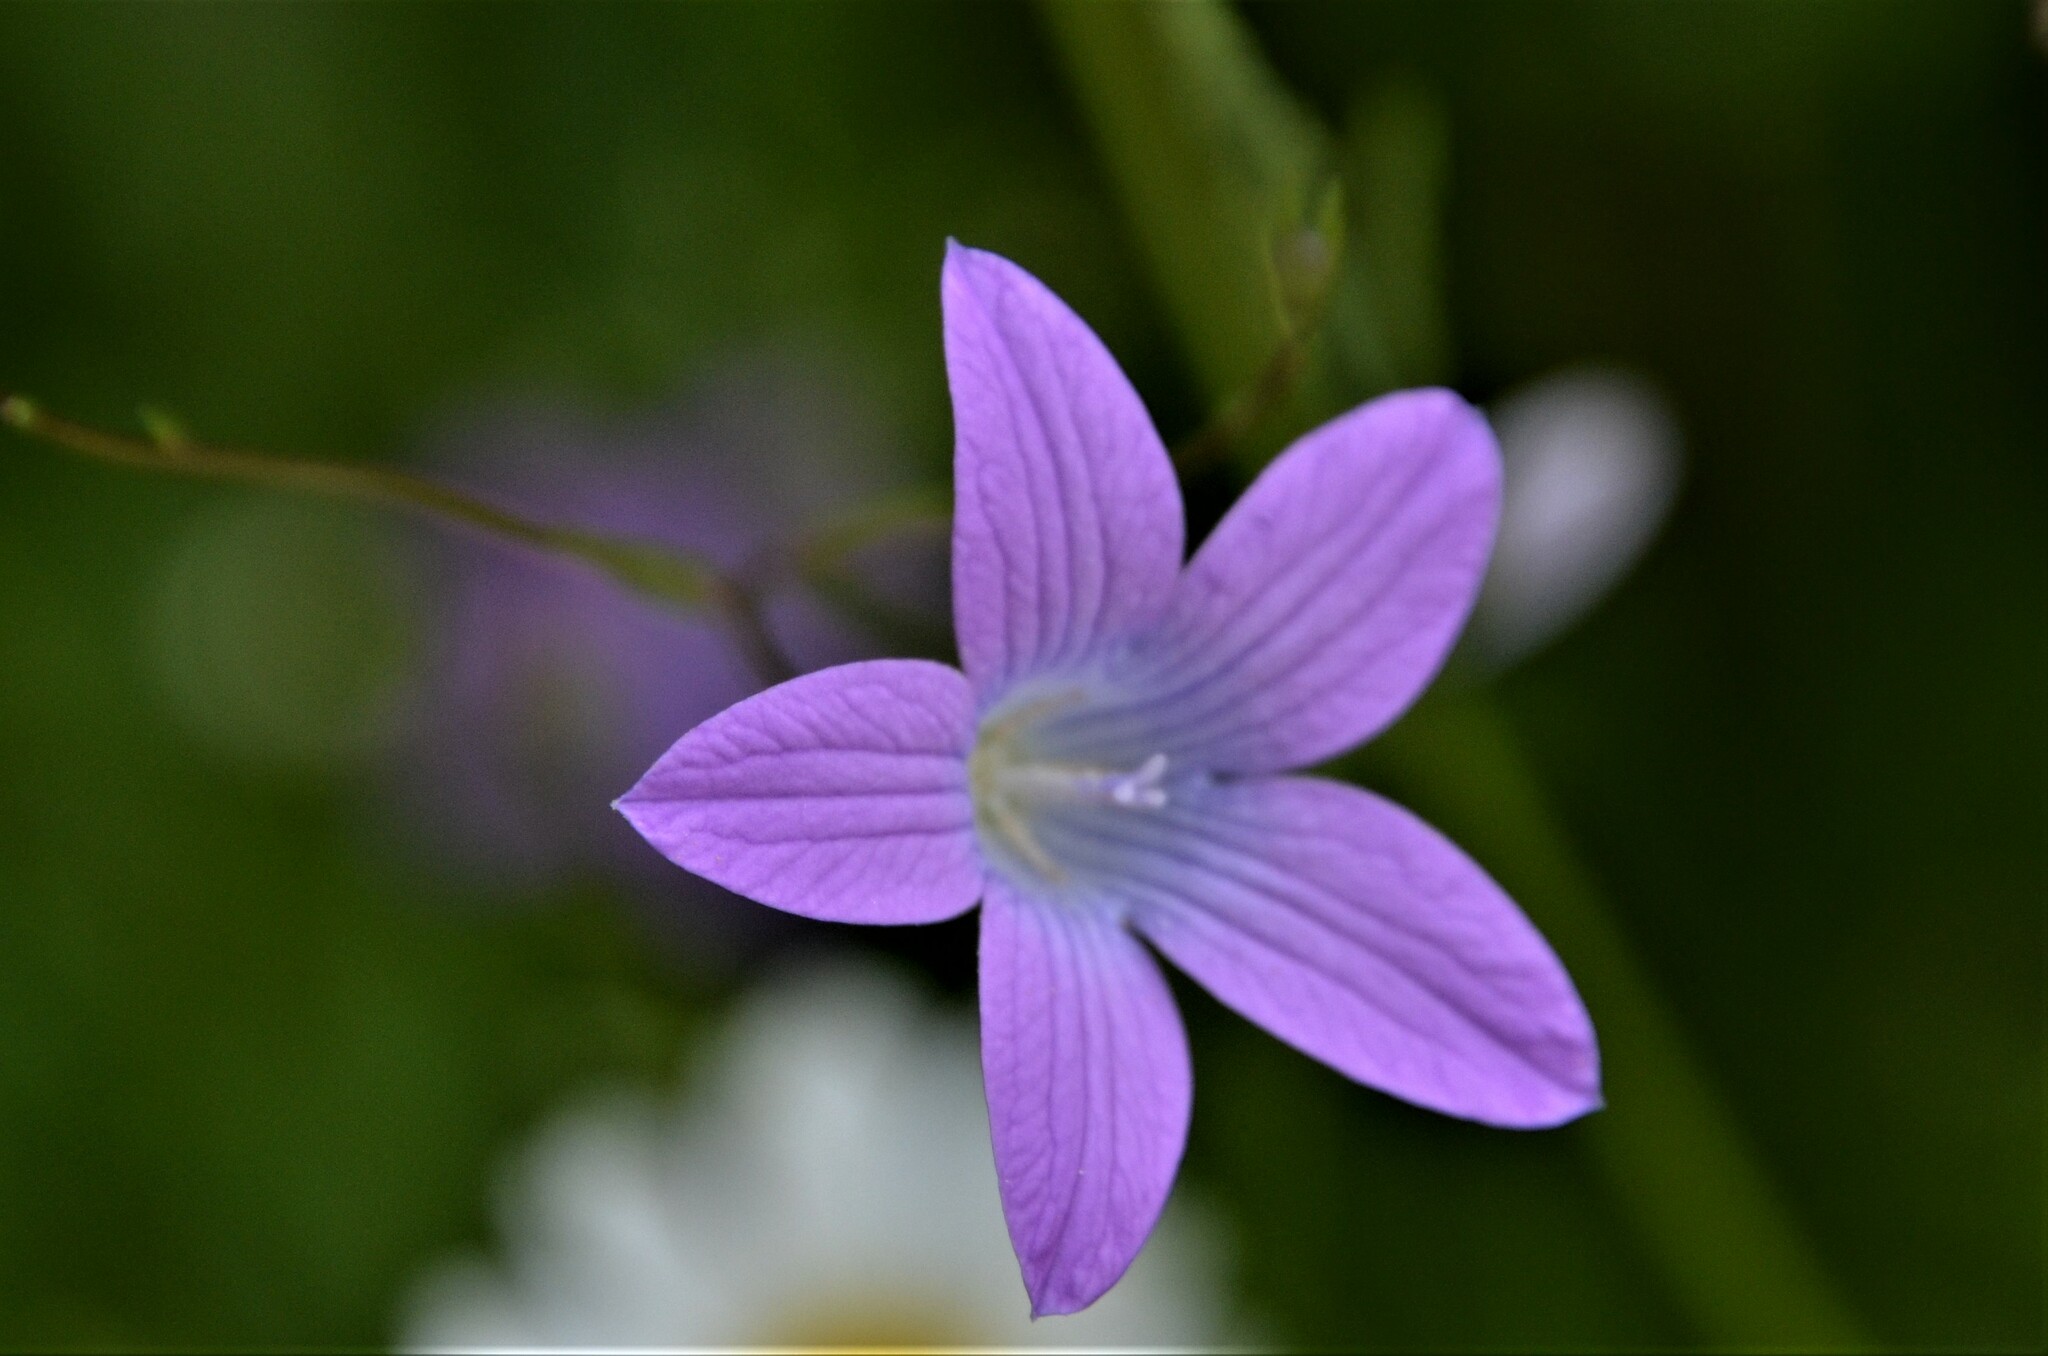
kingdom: Plantae
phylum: Tracheophyta
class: Magnoliopsida
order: Asterales
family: Campanulaceae
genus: Campanula
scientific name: Campanula patula
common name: Spreading bellflower
